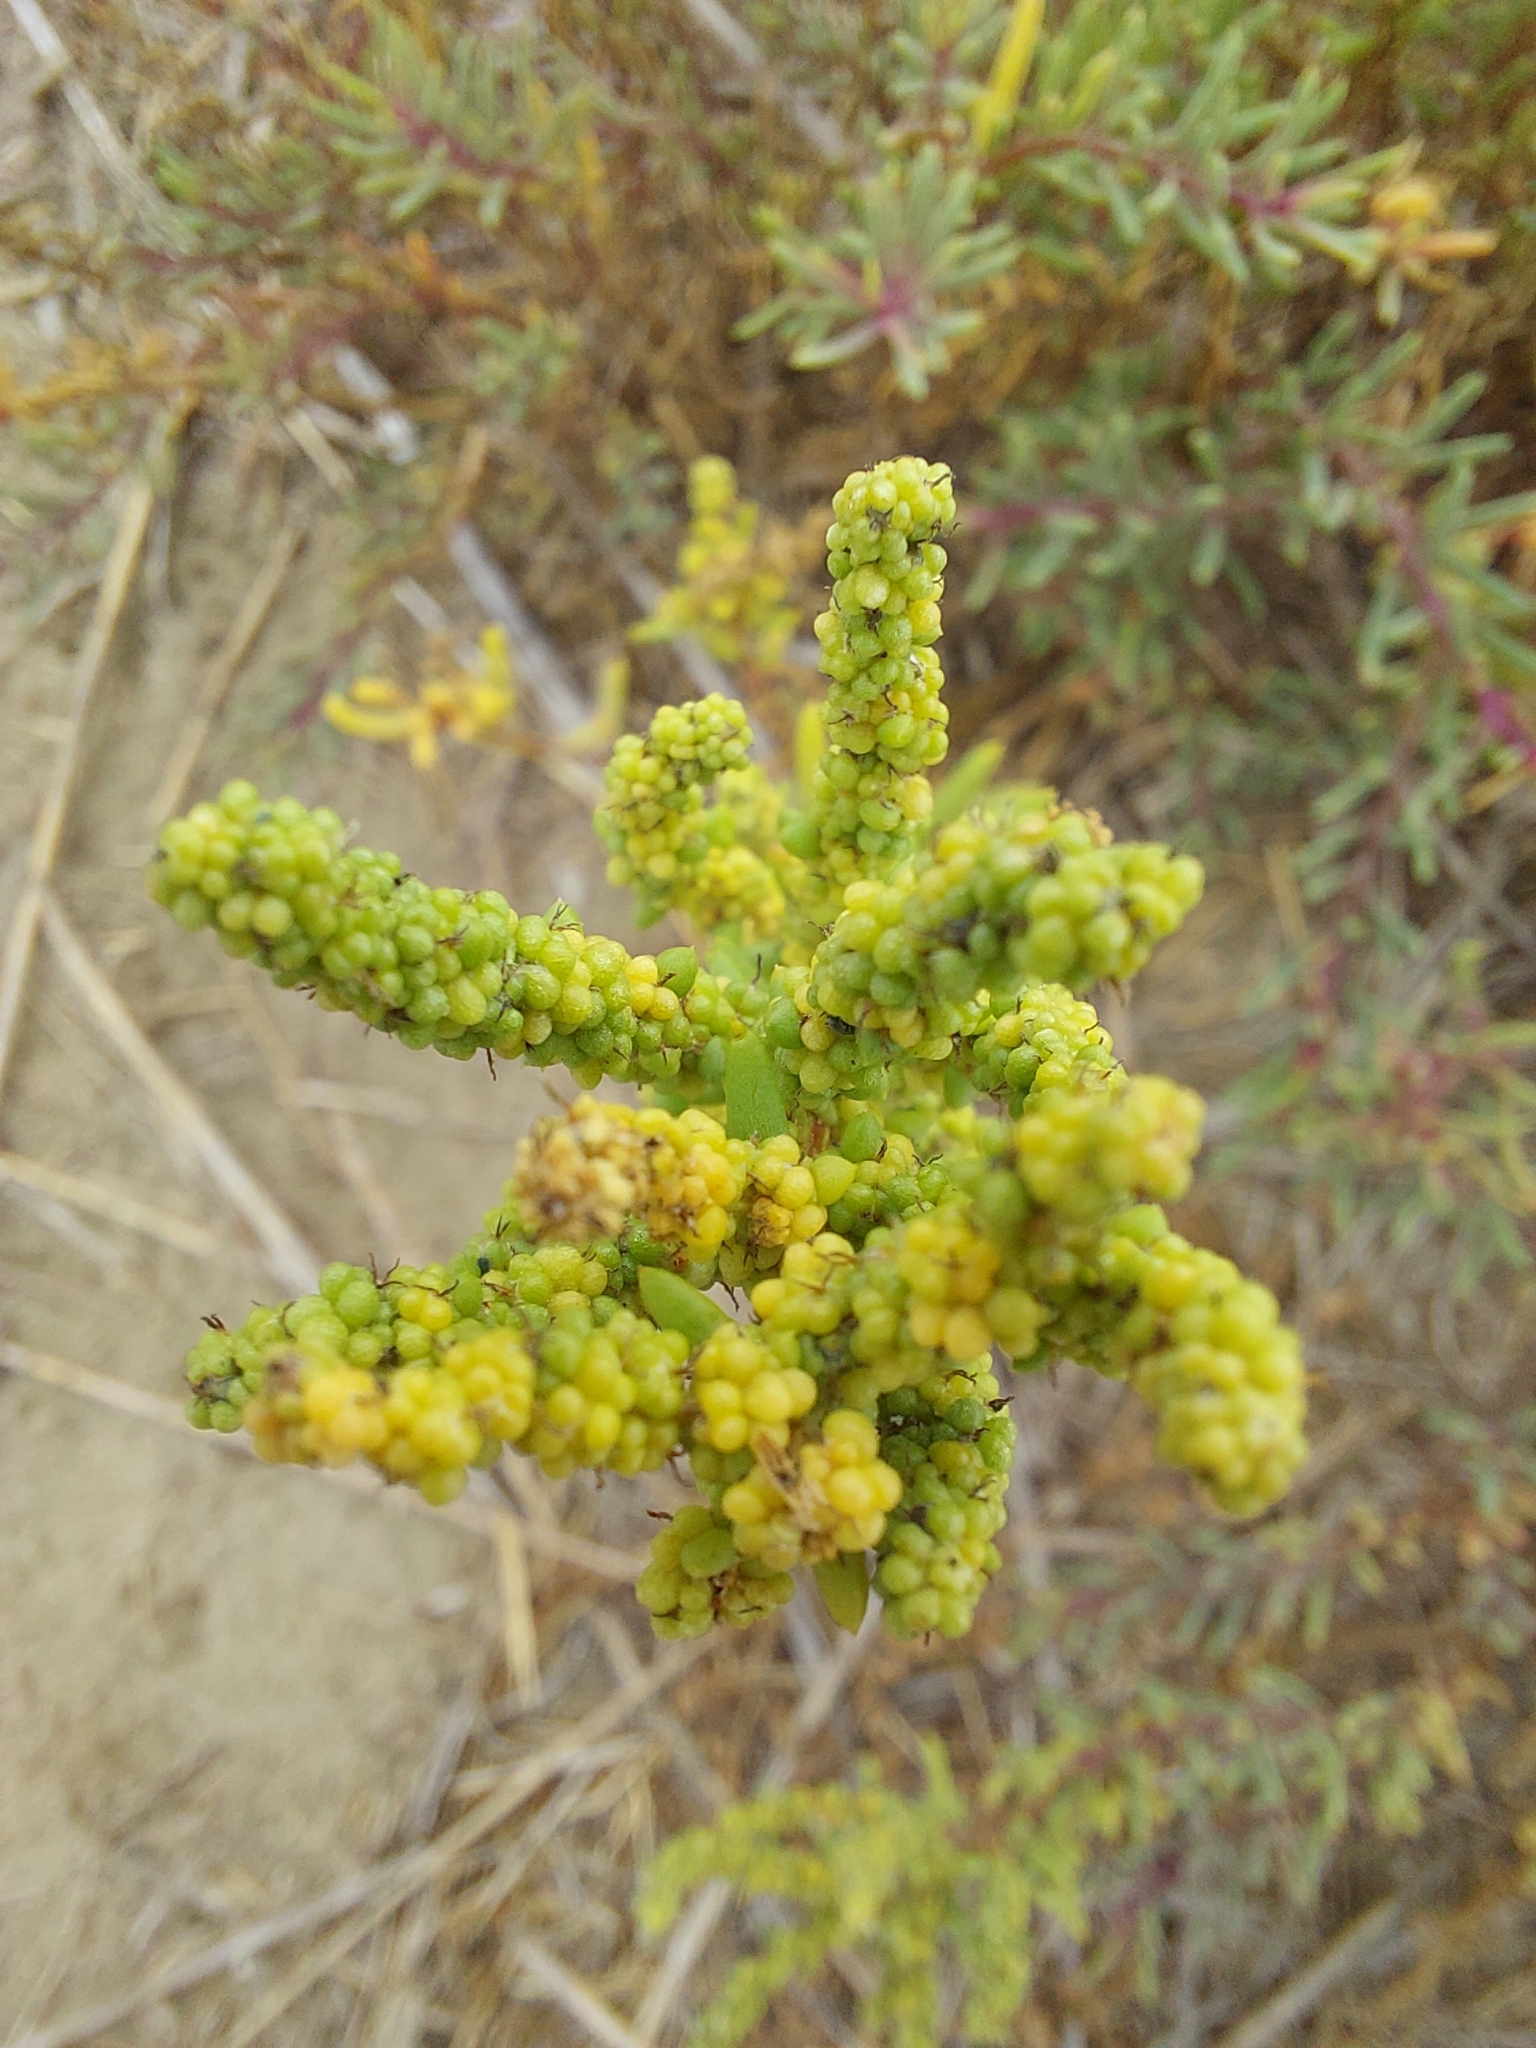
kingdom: Plantae
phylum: Tracheophyta
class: Magnoliopsida
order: Caryophyllales
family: Amaranthaceae
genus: Suaeda
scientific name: Suaeda maritima
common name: Annual sea-blite
